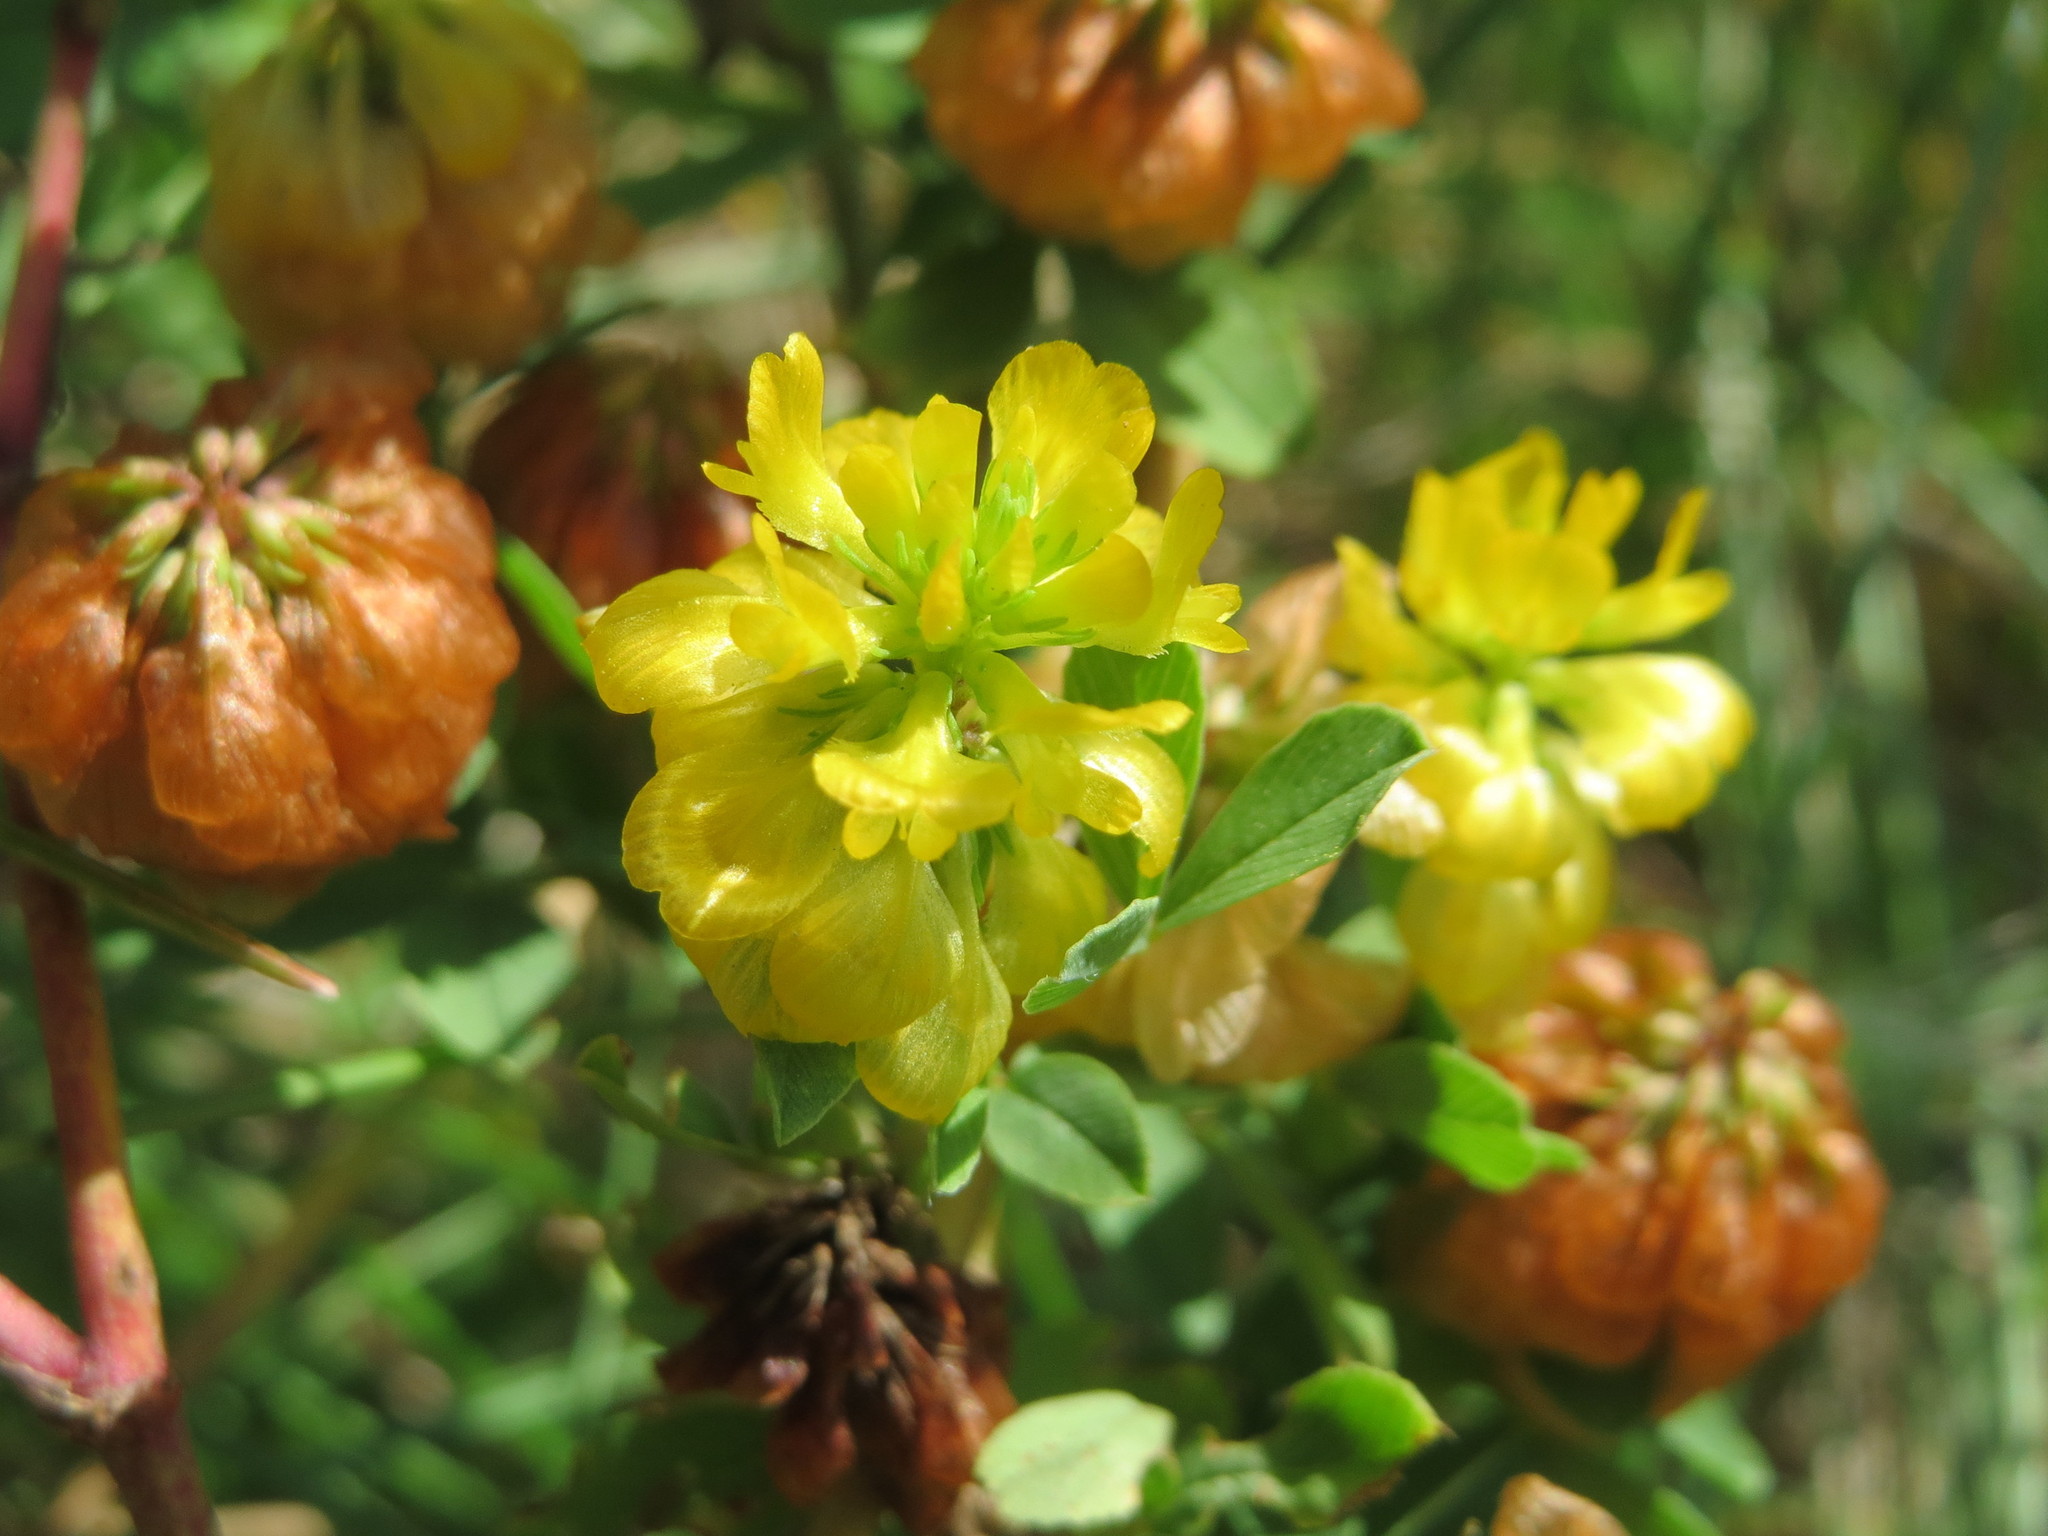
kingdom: Plantae
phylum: Tracheophyta
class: Magnoliopsida
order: Fabales
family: Fabaceae
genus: Trifolium
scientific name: Trifolium campestre
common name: Field clover
